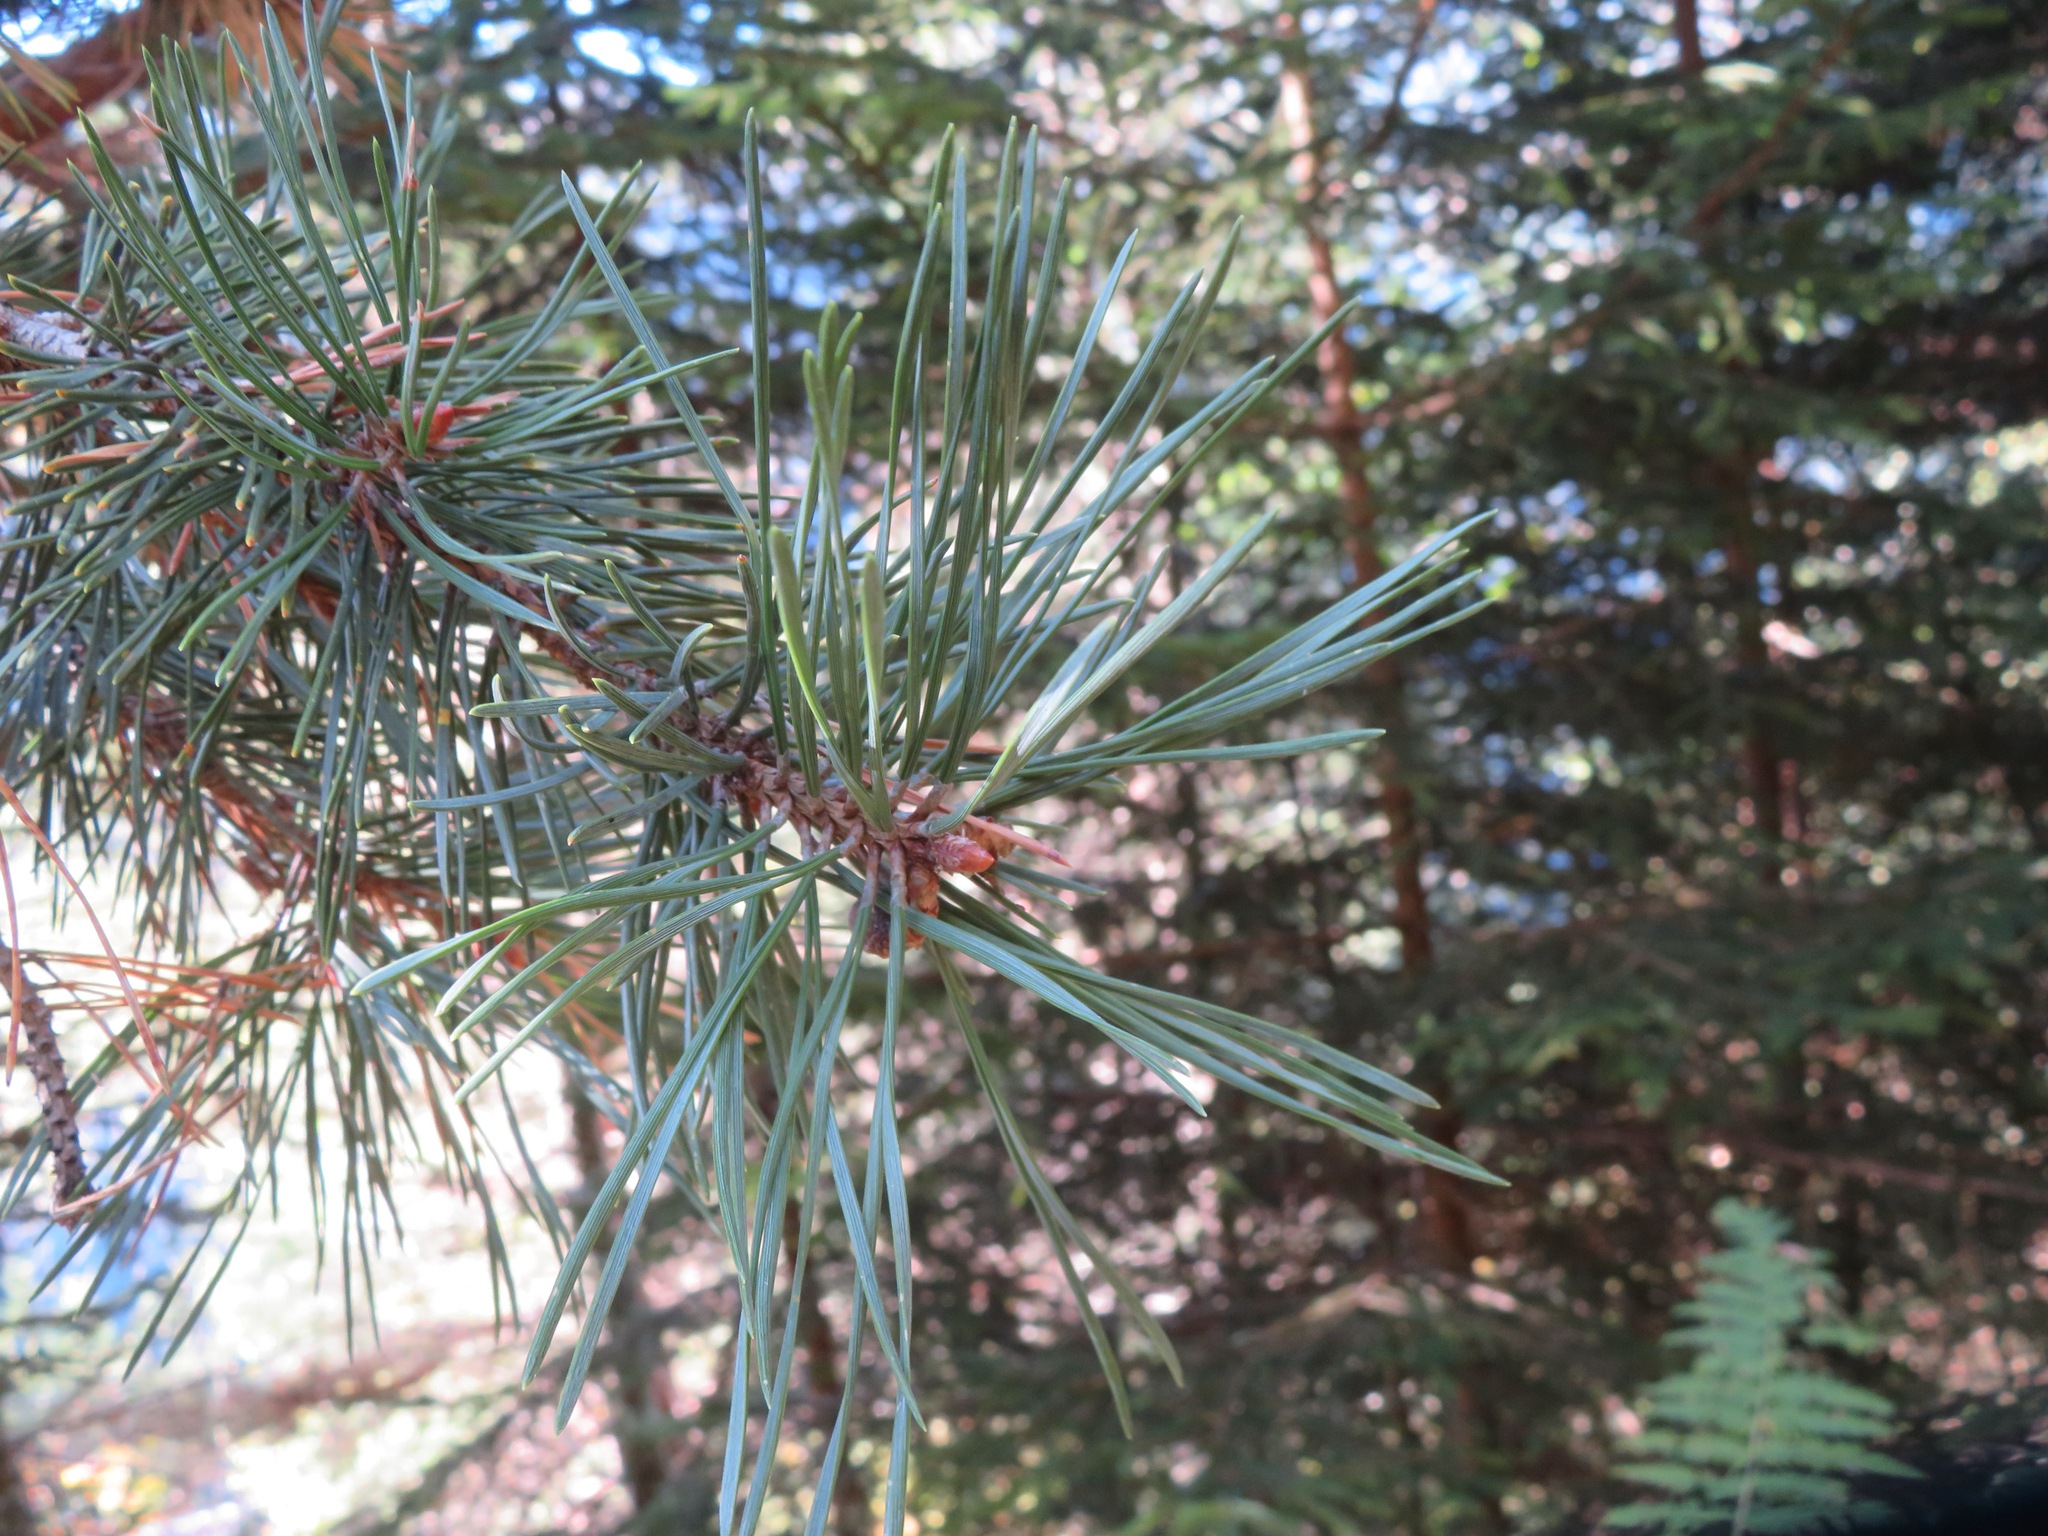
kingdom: Plantae
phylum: Tracheophyta
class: Pinopsida
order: Pinales
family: Pinaceae
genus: Pinus
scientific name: Pinus sylvestris
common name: Scots pine
